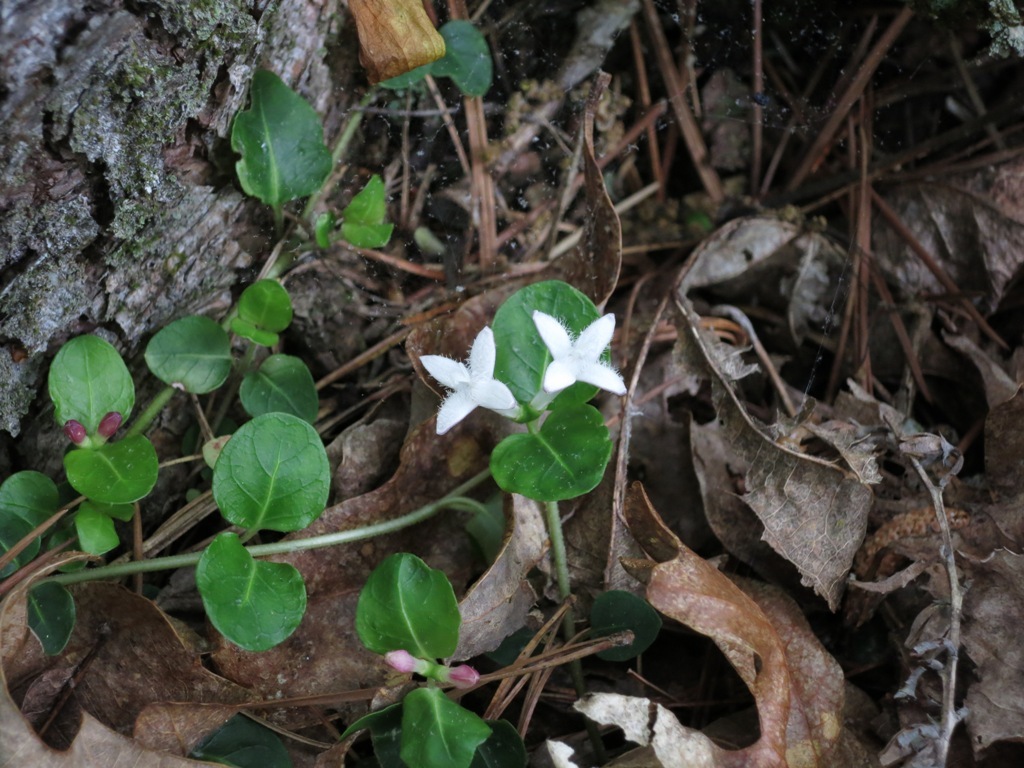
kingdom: Plantae
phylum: Tracheophyta
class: Magnoliopsida
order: Gentianales
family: Rubiaceae
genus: Mitchella
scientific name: Mitchella repens
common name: Partridge-berry
